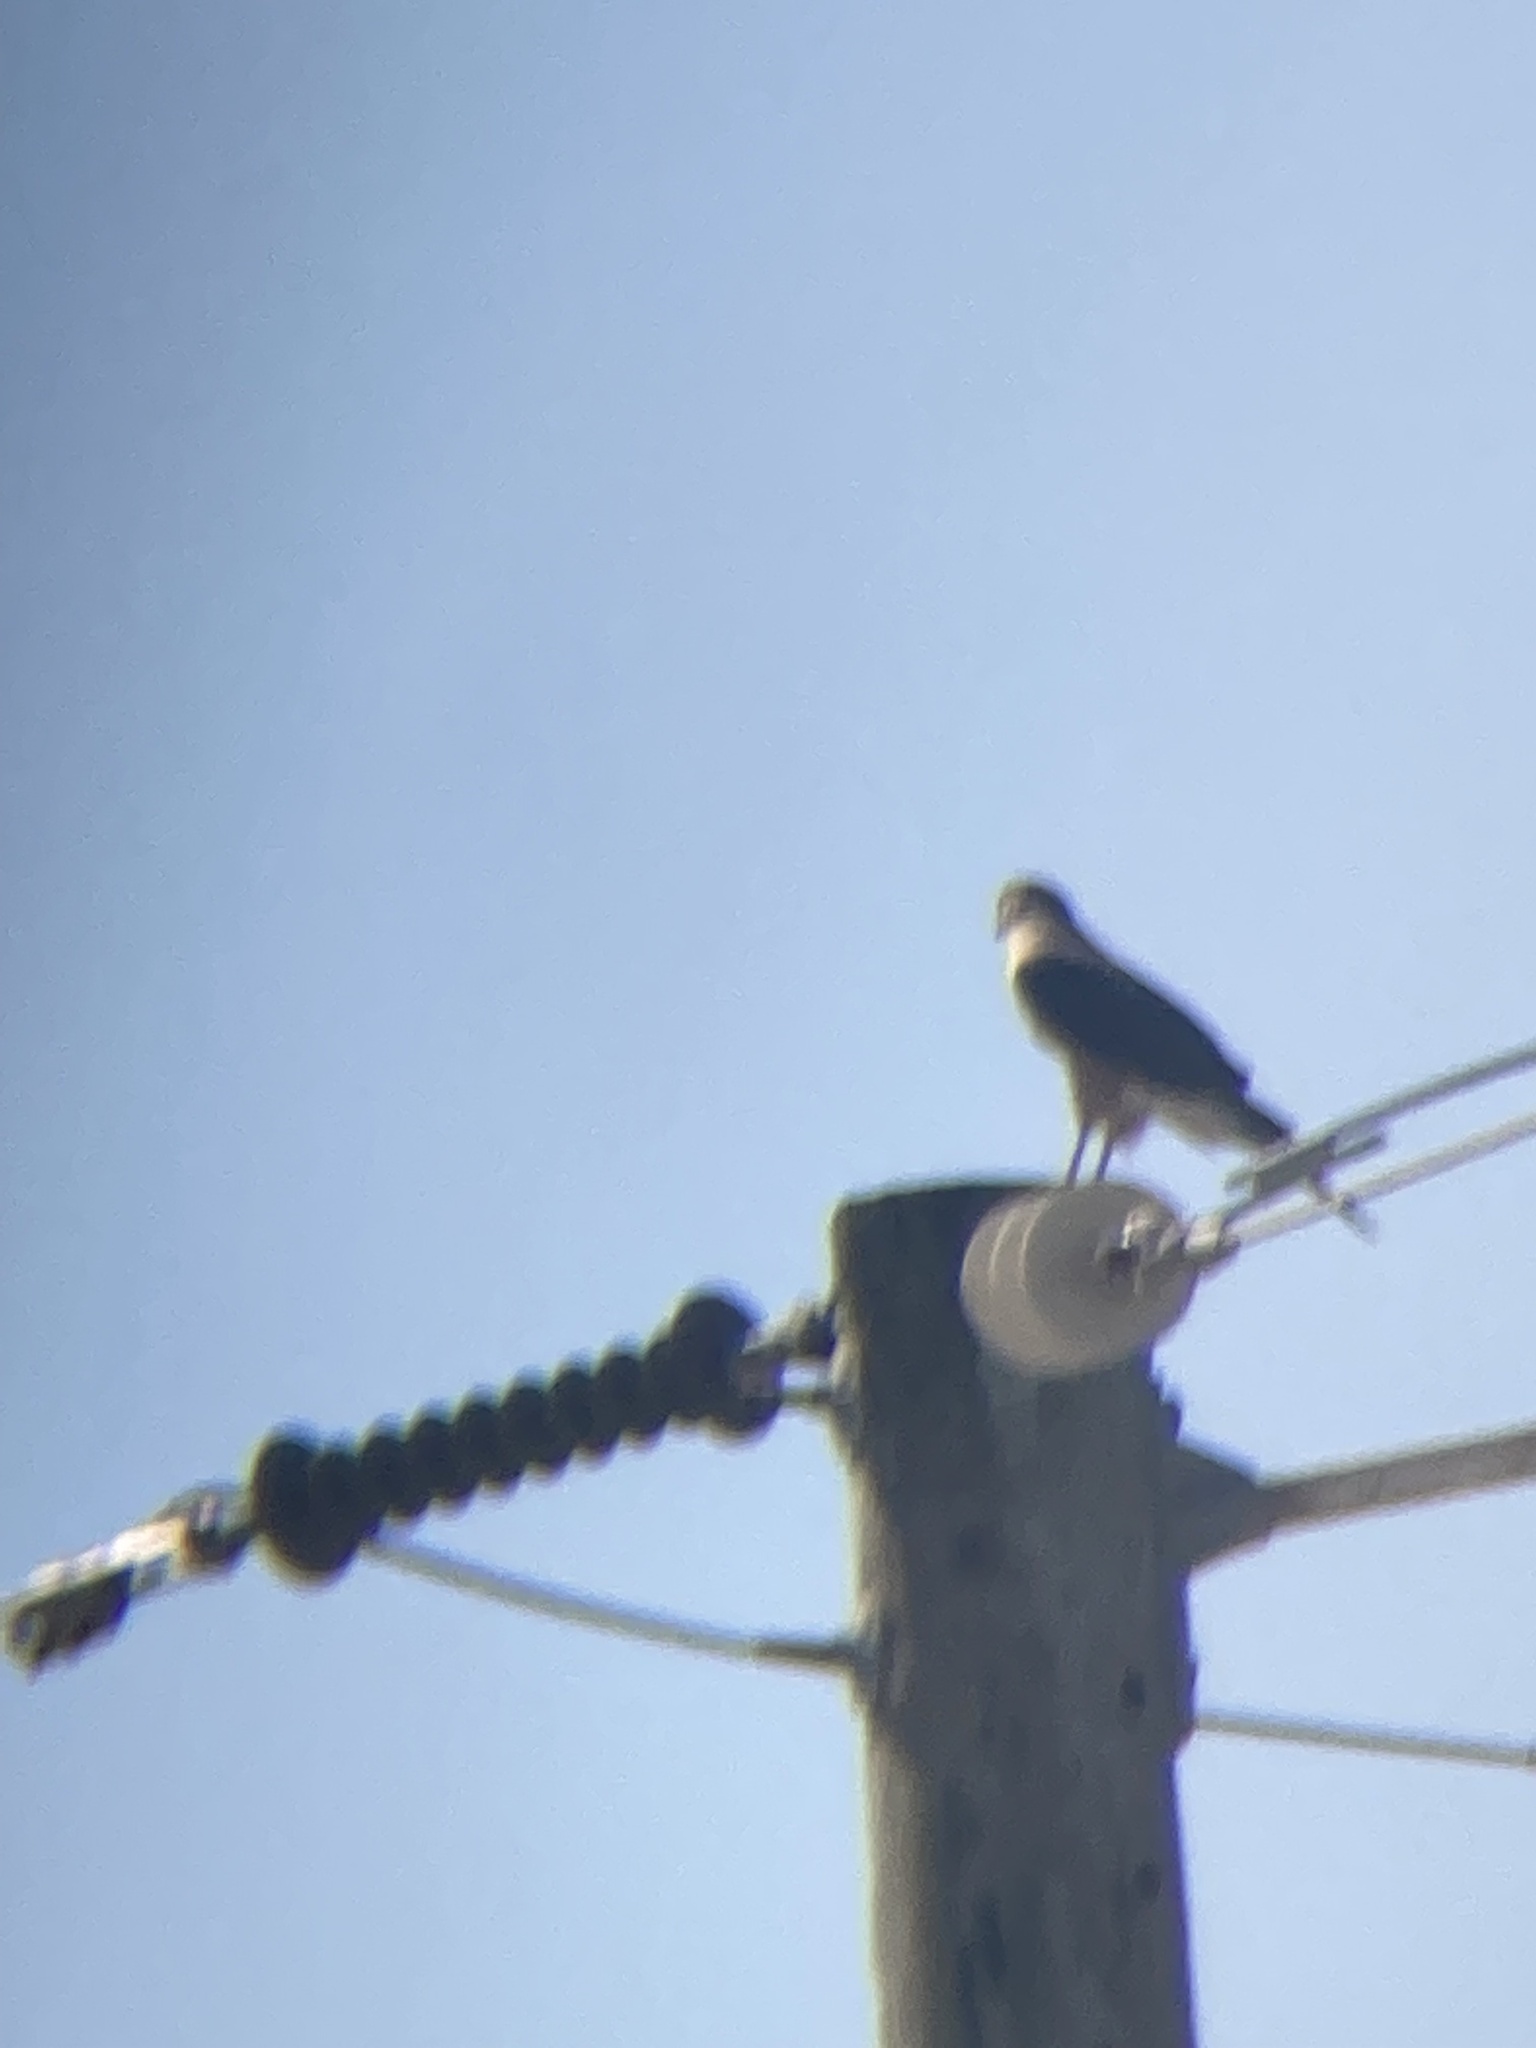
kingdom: Animalia
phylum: Chordata
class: Aves
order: Accipitriformes
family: Accipitridae
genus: Accipiter
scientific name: Accipiter cooperii
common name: Cooper's hawk
